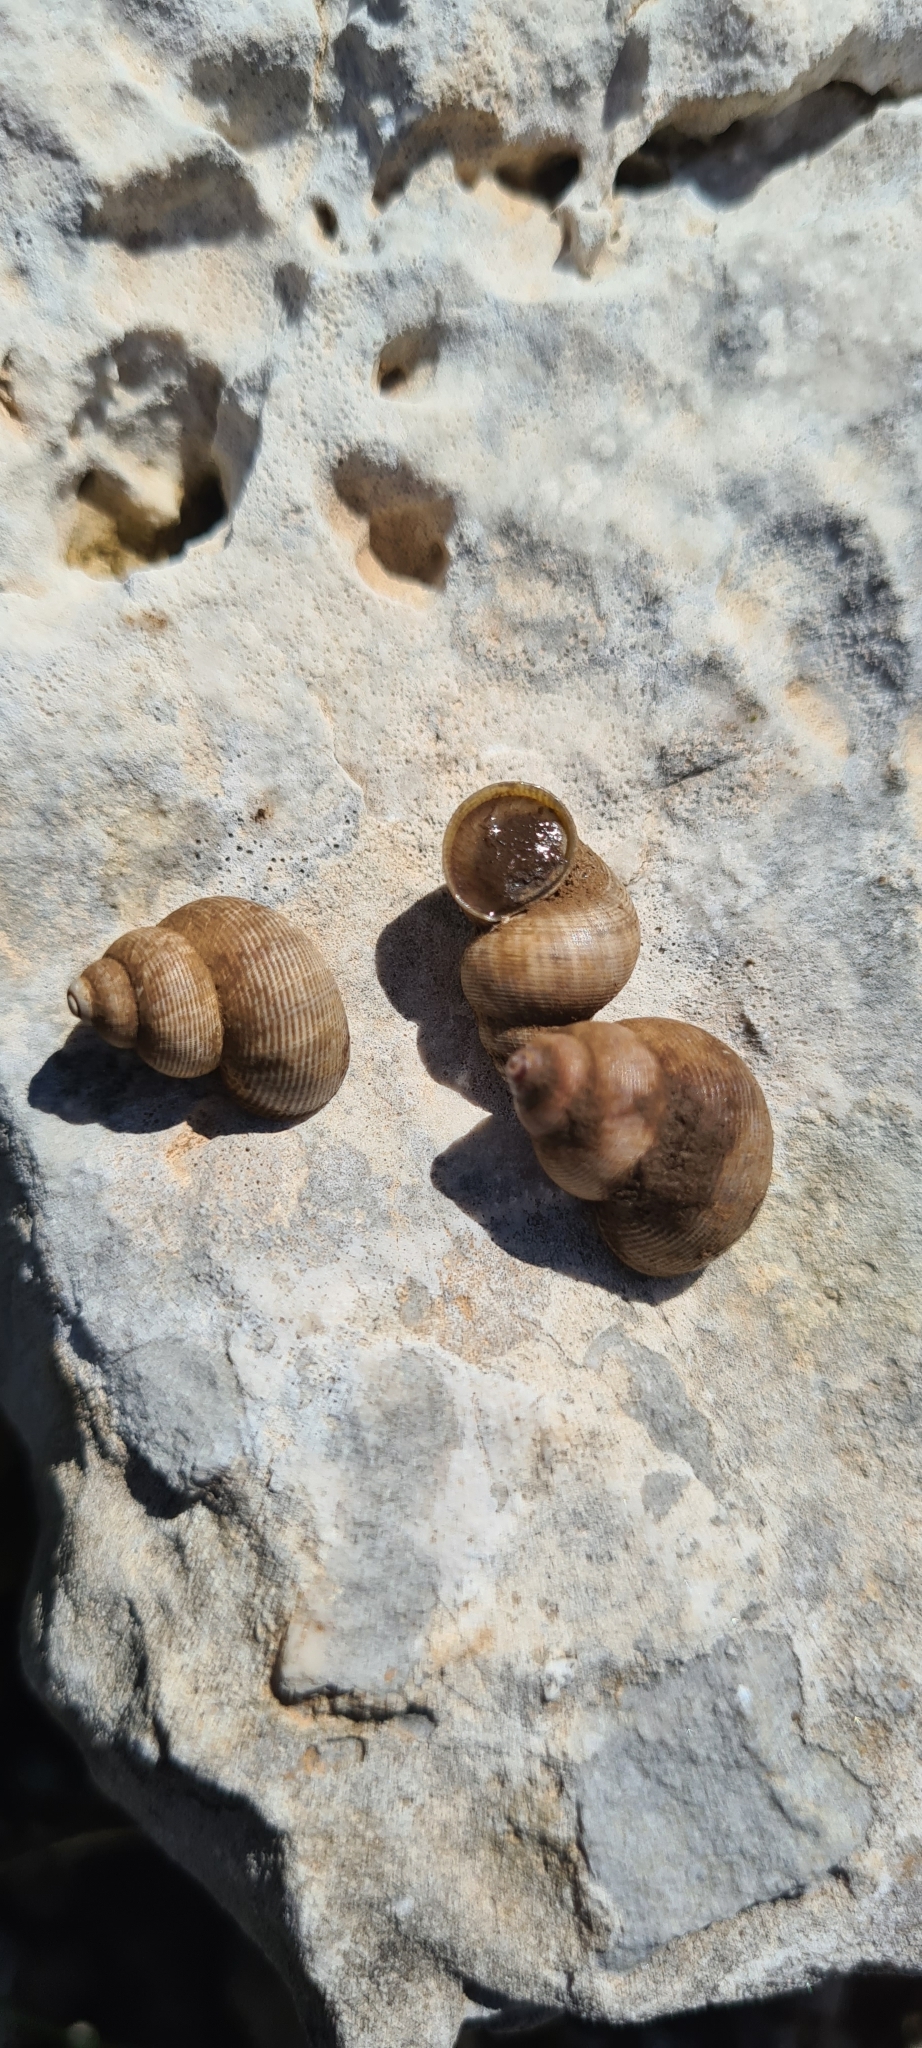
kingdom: Animalia
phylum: Mollusca
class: Gastropoda
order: Littorinimorpha
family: Pomatiidae
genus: Pomatias
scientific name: Pomatias elegans
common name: Red-mouthed snail
